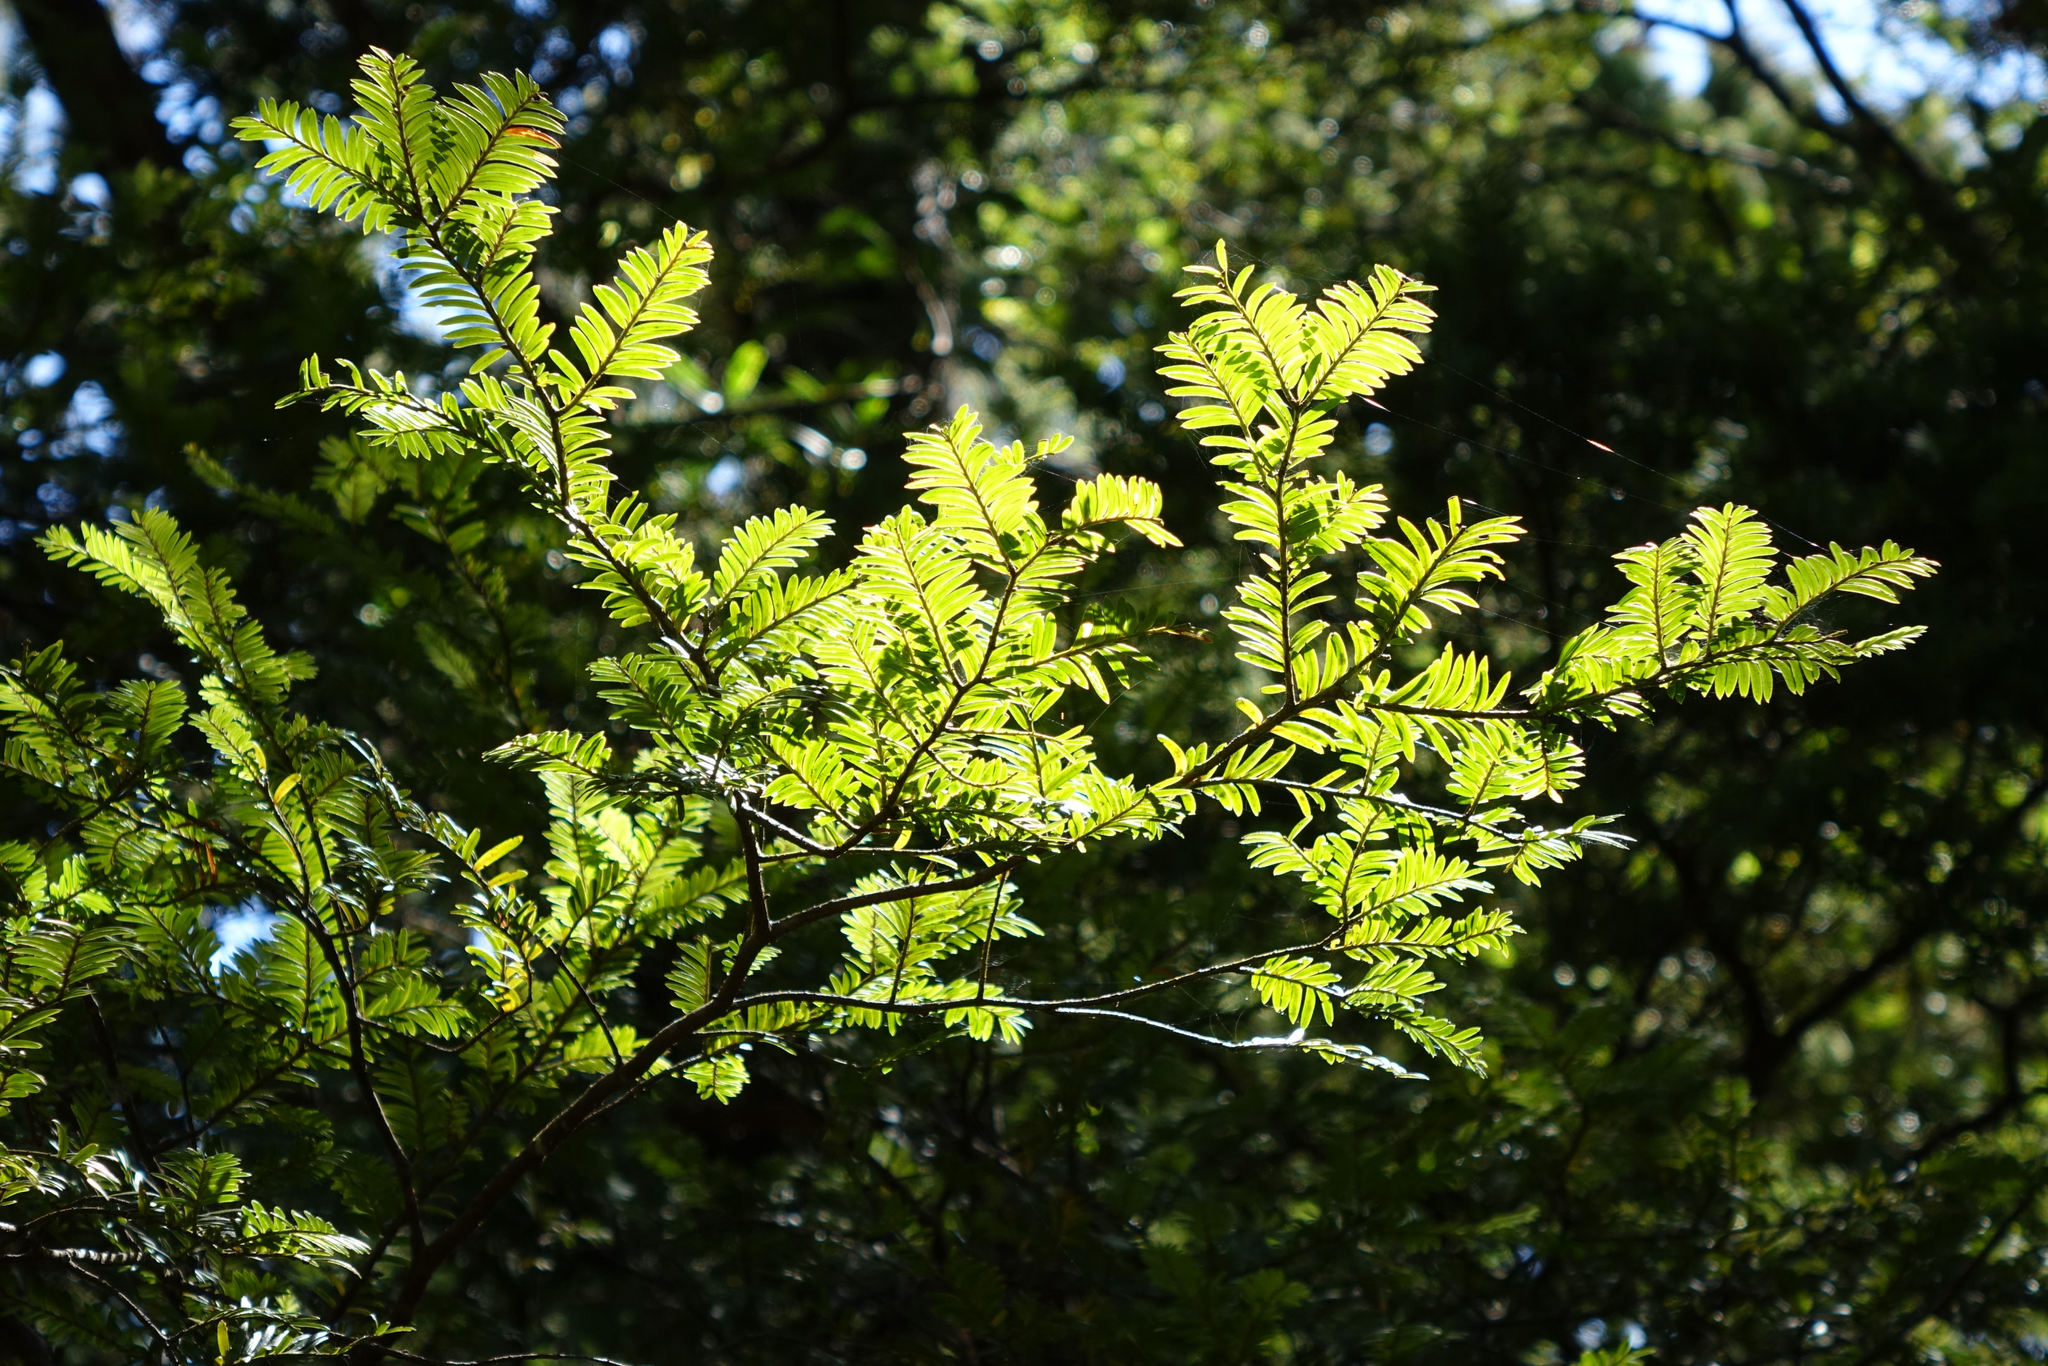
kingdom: Plantae
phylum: Tracheophyta
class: Pinopsida
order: Pinales
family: Podocarpaceae
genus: Prumnopitys
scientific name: Prumnopitys ferruginea
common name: Brown pine
